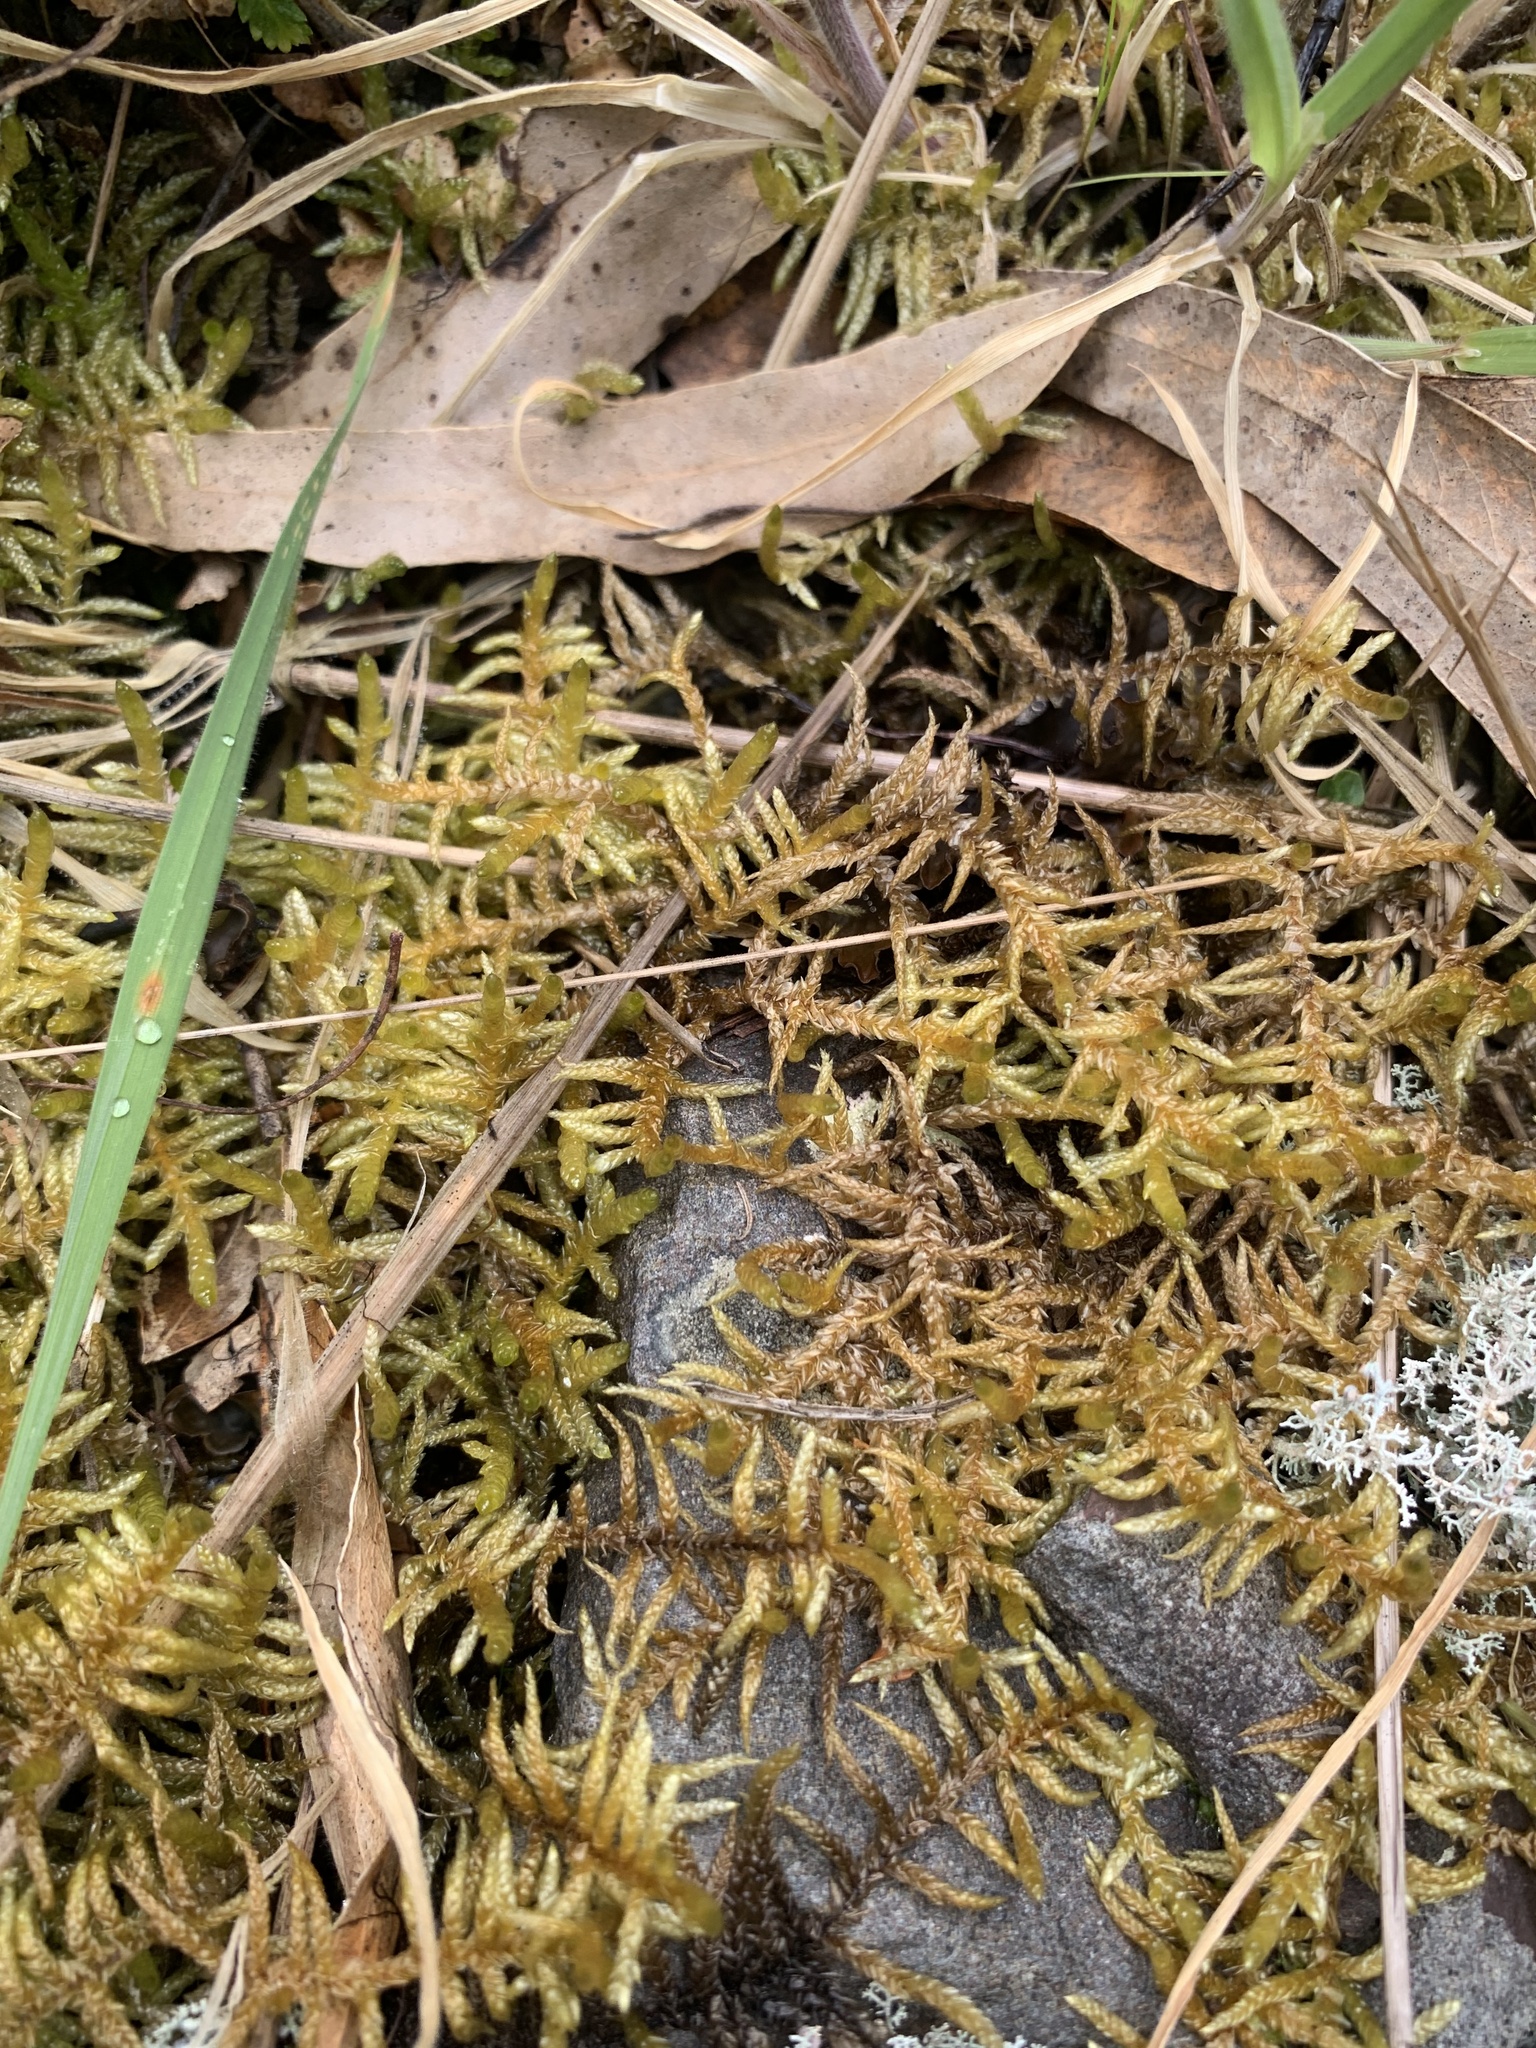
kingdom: Plantae
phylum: Bryophyta
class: Bryopsida
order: Hypnales
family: Brachytheciaceae
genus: Pseudoscleropodium
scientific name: Pseudoscleropodium purum
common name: Neat feather-moss
